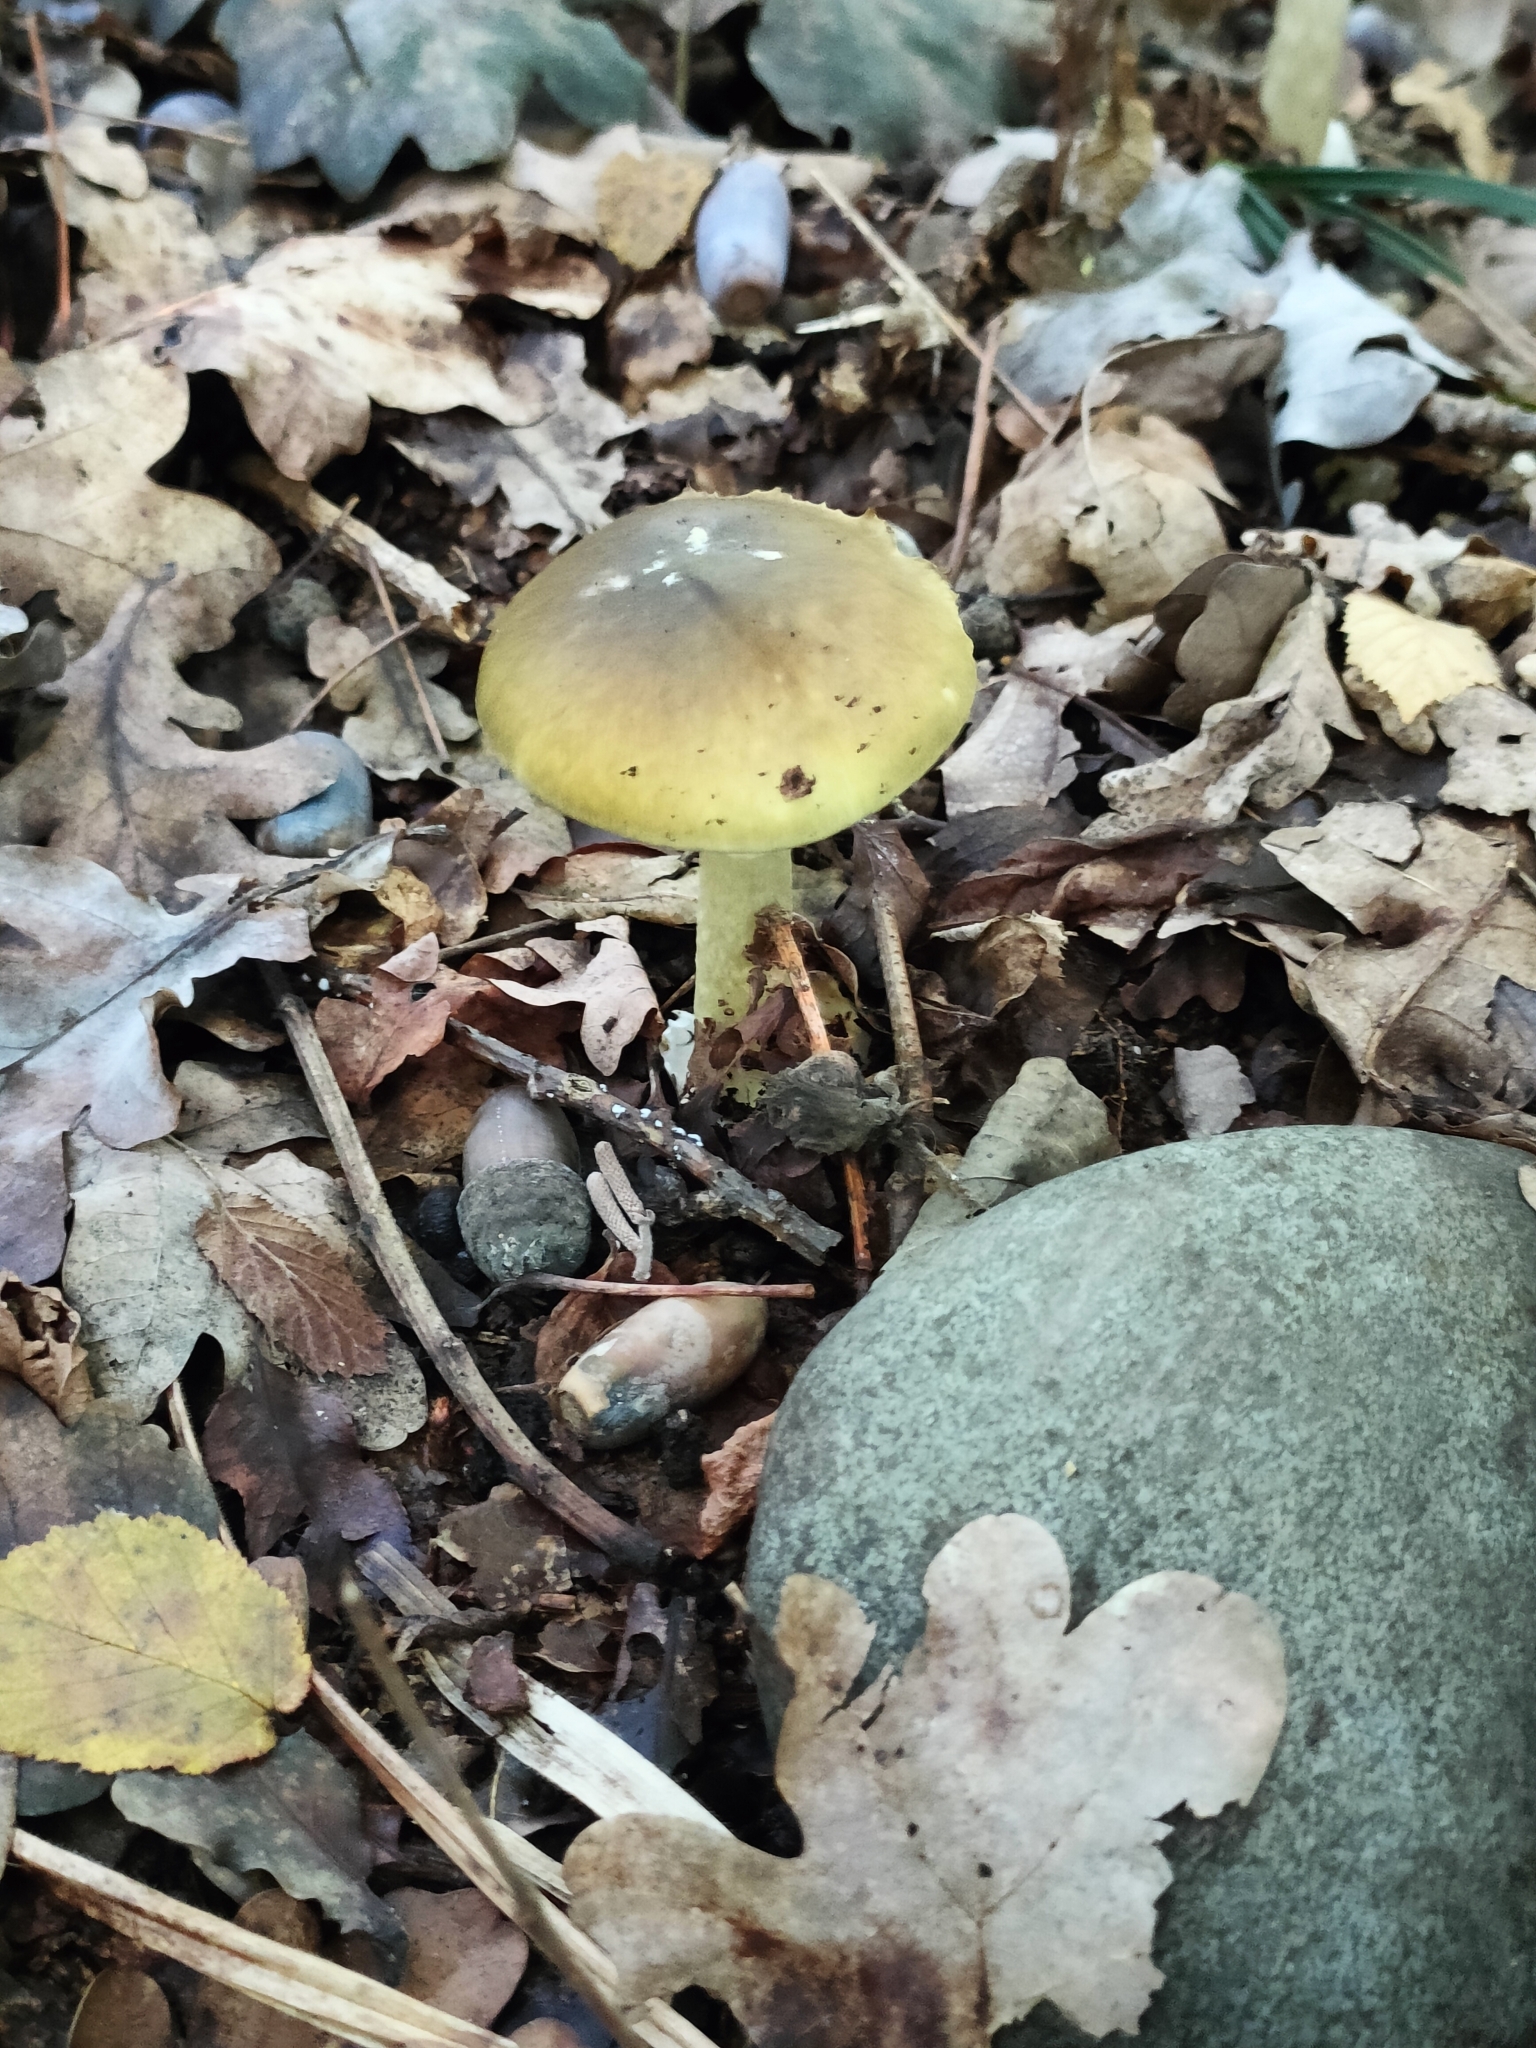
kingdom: Fungi
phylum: Basidiomycota
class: Agaricomycetes
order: Agaricales
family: Amanitaceae
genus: Amanita
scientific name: Amanita phalloides
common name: Death cap
